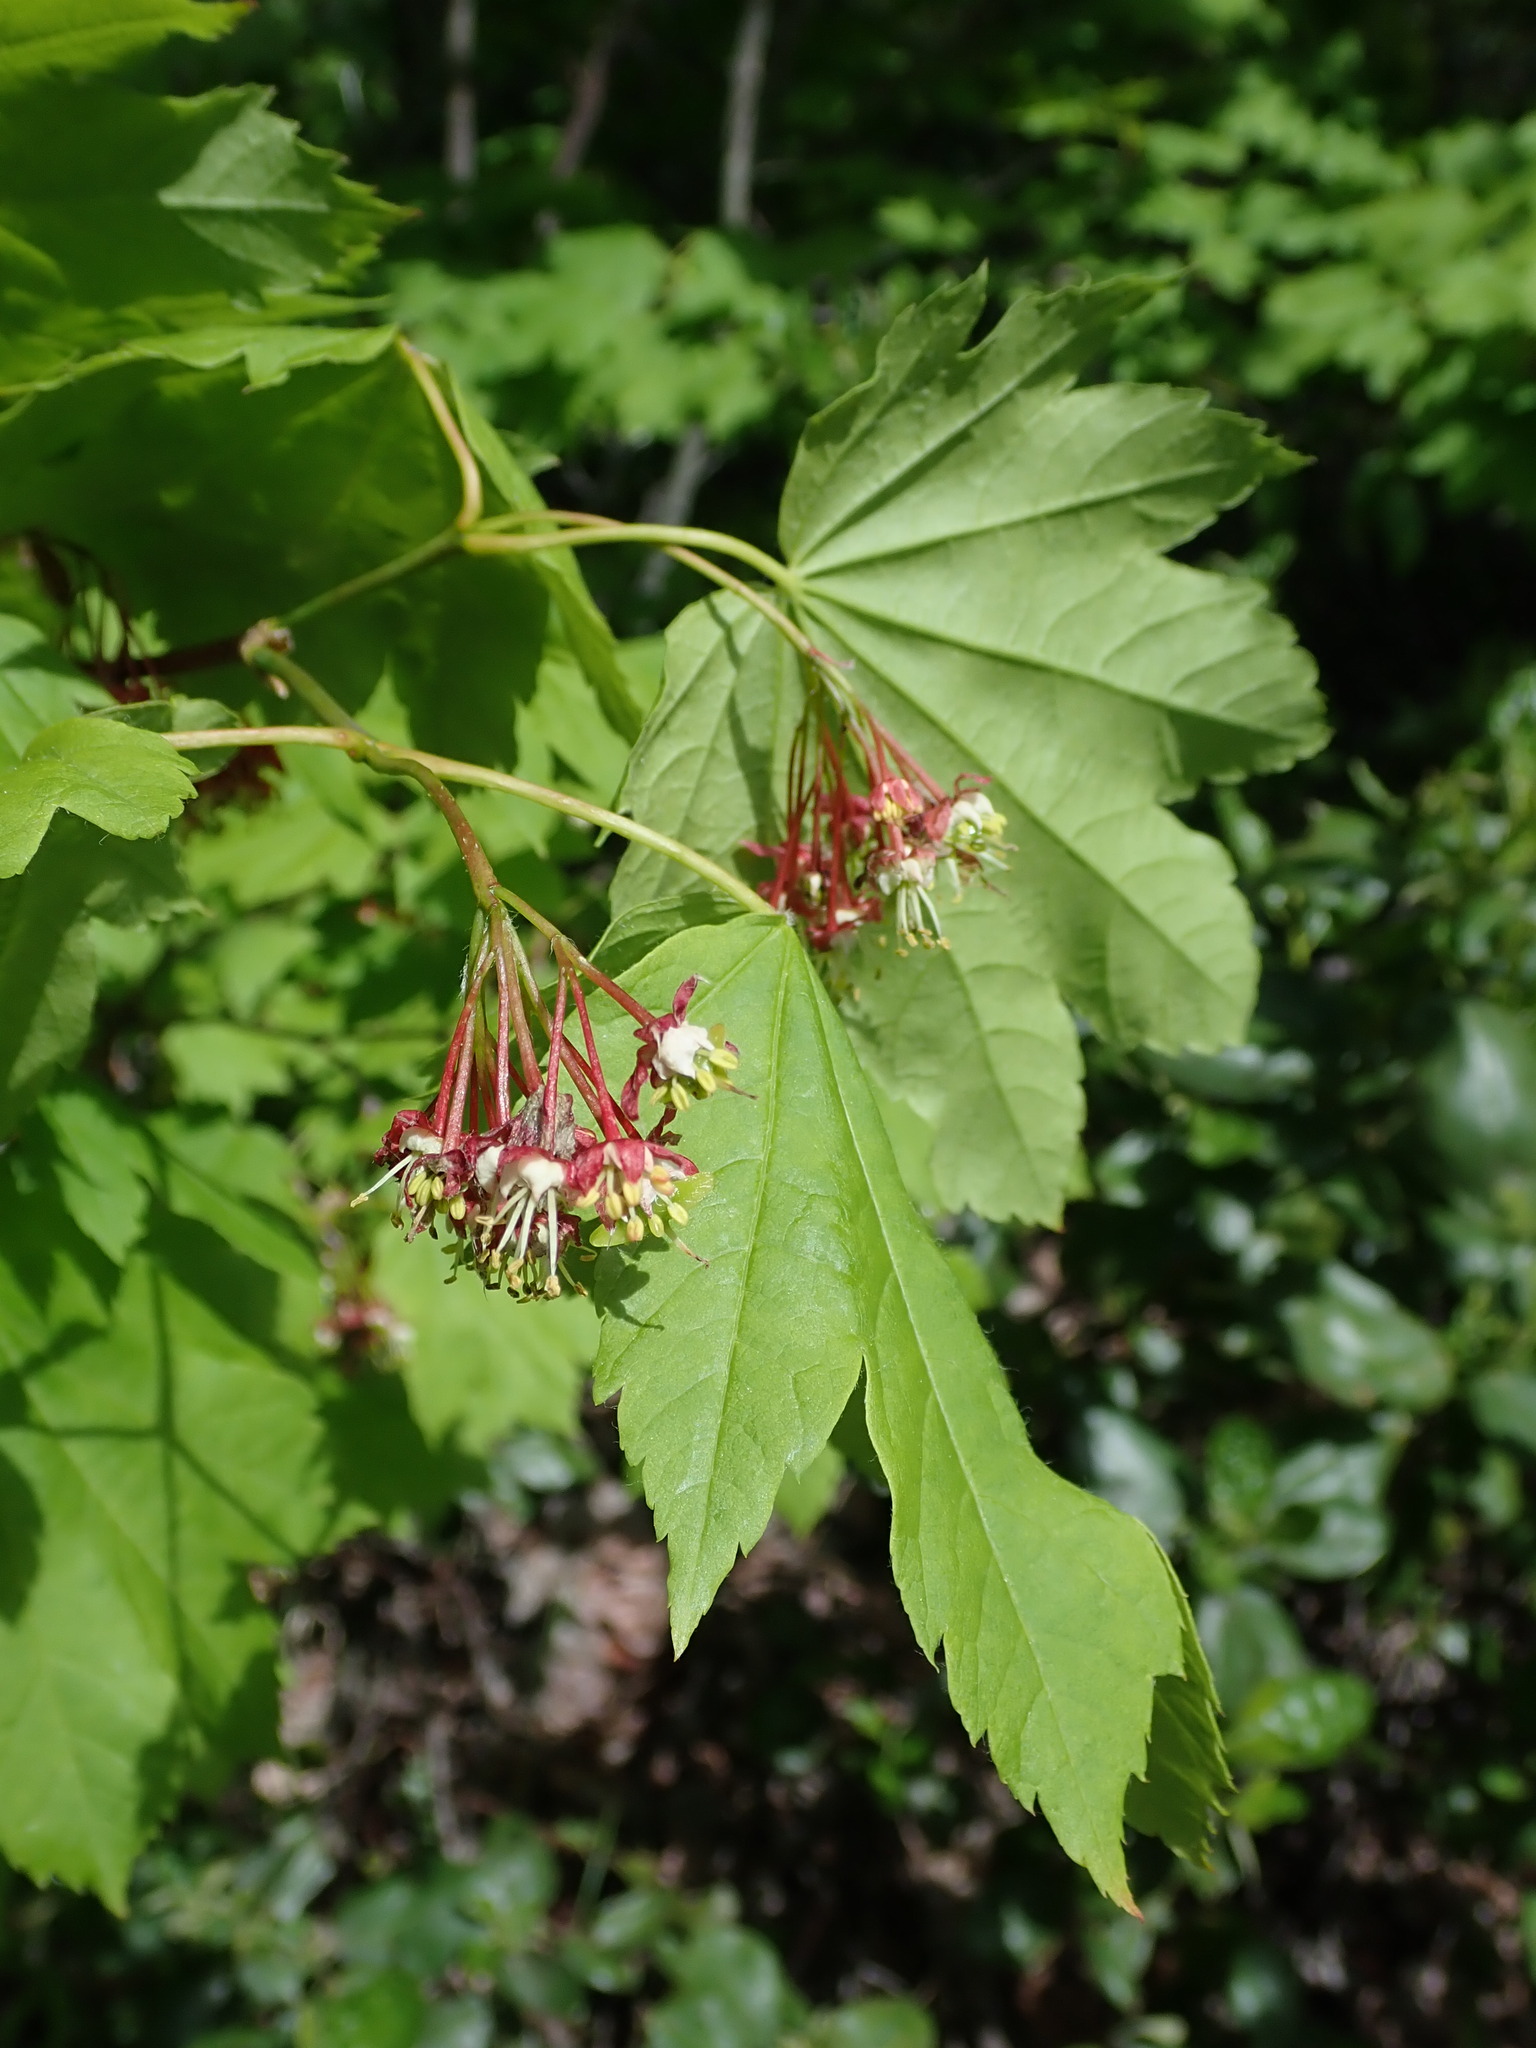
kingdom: Plantae
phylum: Tracheophyta
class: Magnoliopsida
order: Sapindales
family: Sapindaceae
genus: Acer
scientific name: Acer circinatum
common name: Vine maple
